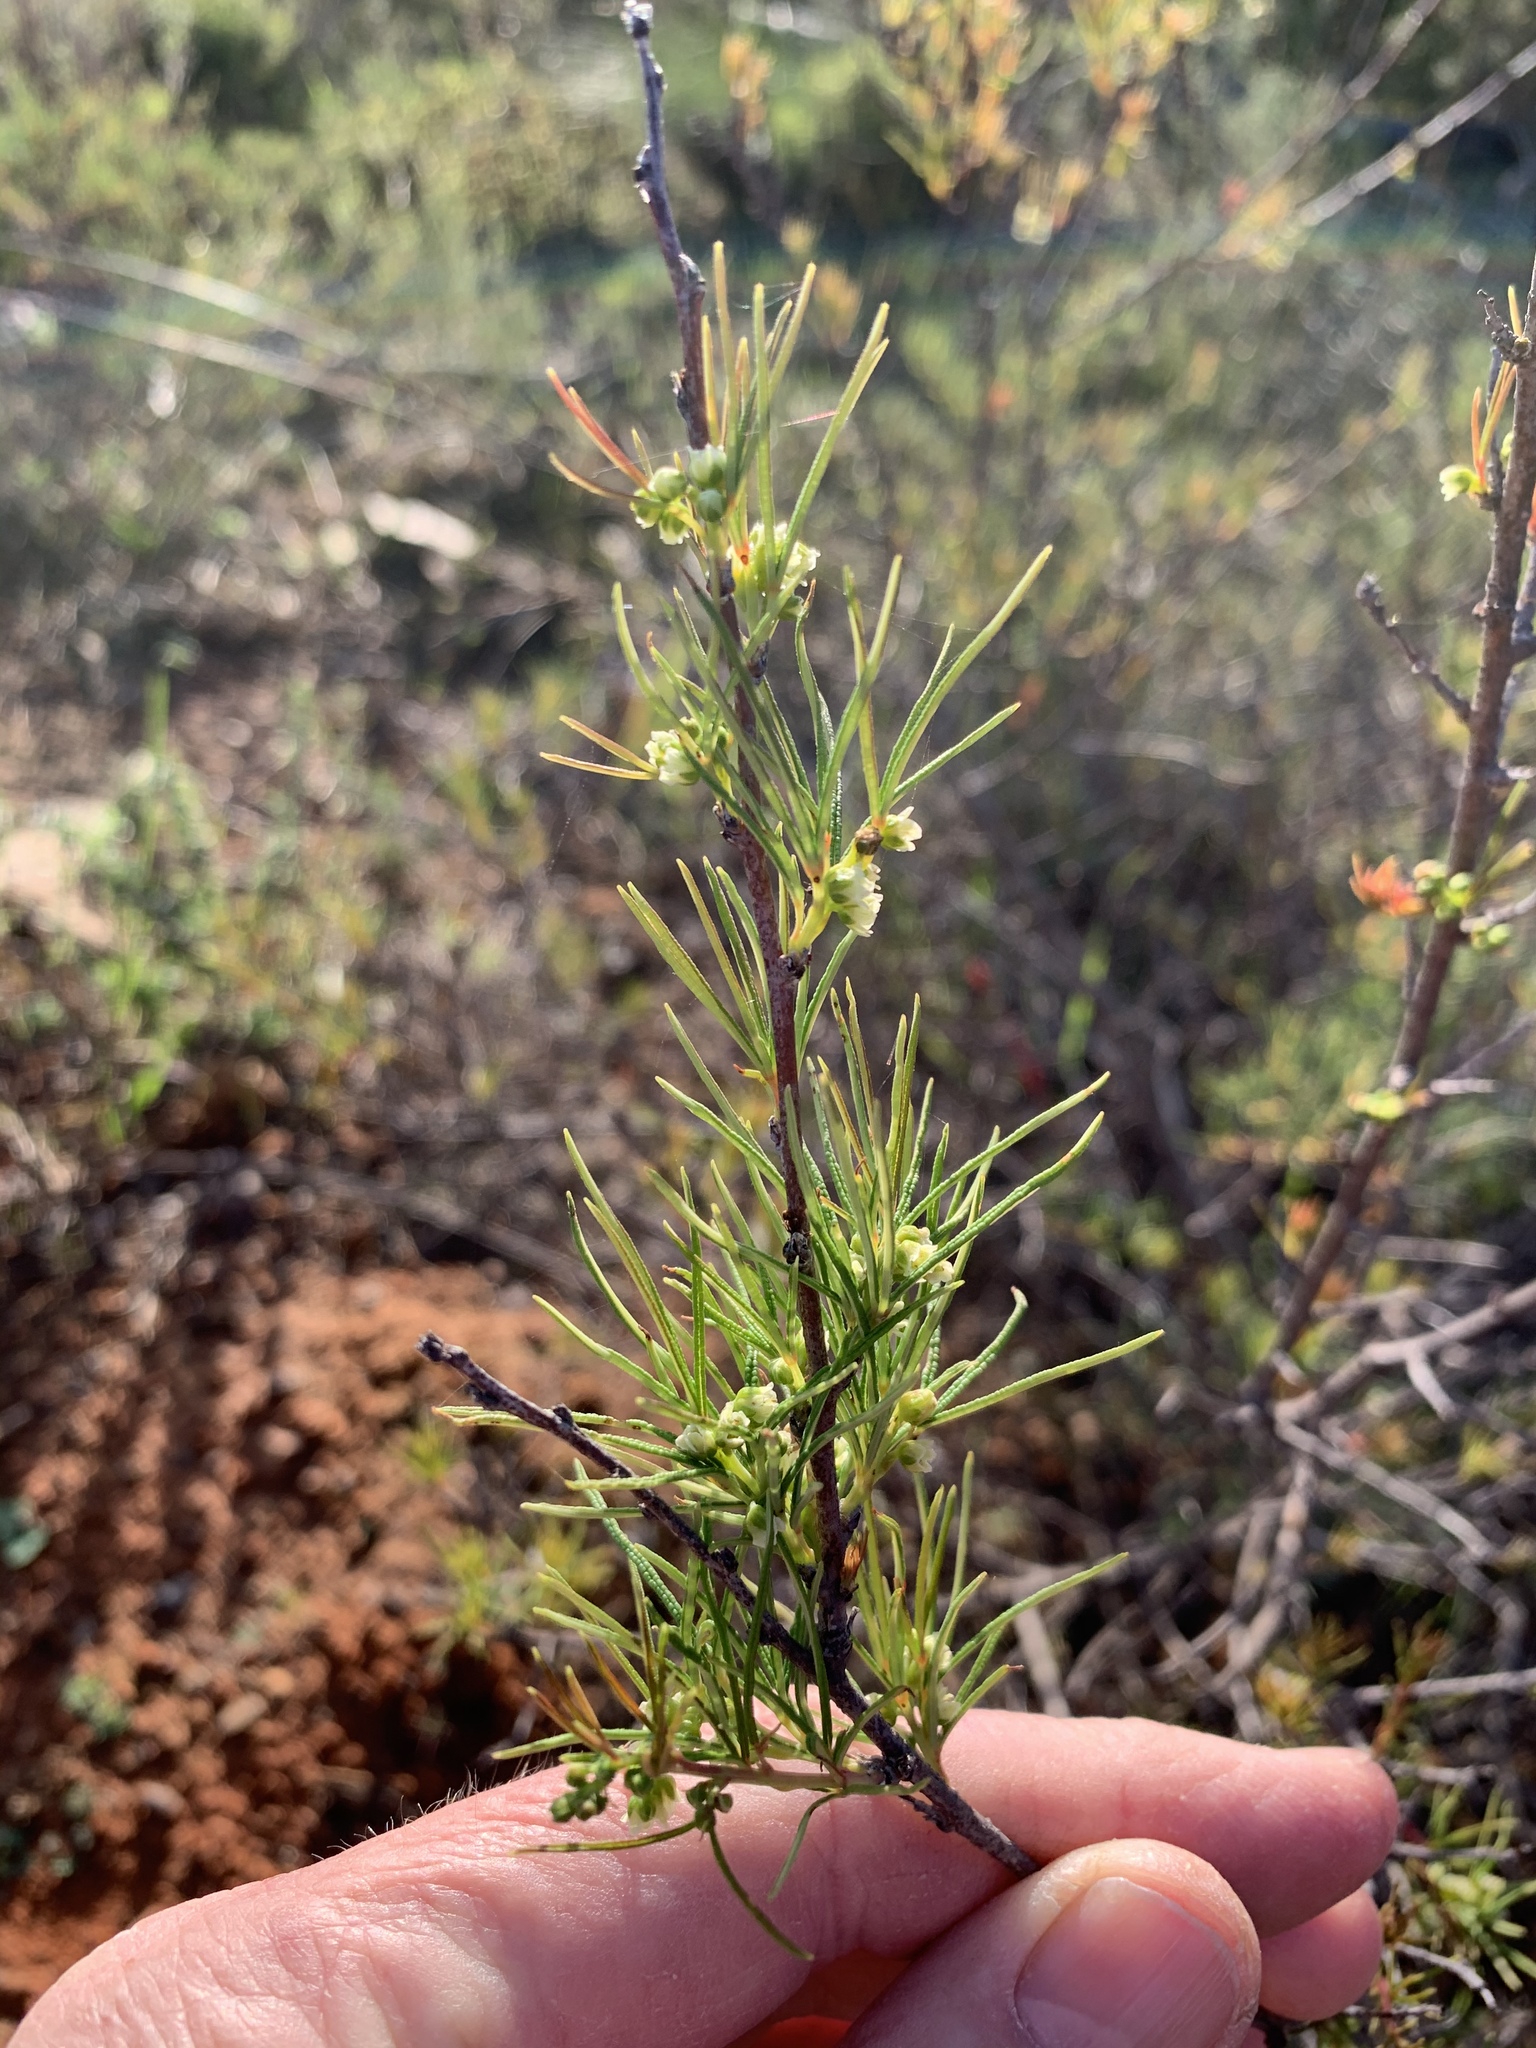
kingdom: Plantae
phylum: Tracheophyta
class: Magnoliopsida
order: Sapindales
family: Anacardiaceae
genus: Searsia
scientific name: Searsia rosmarinifolia
